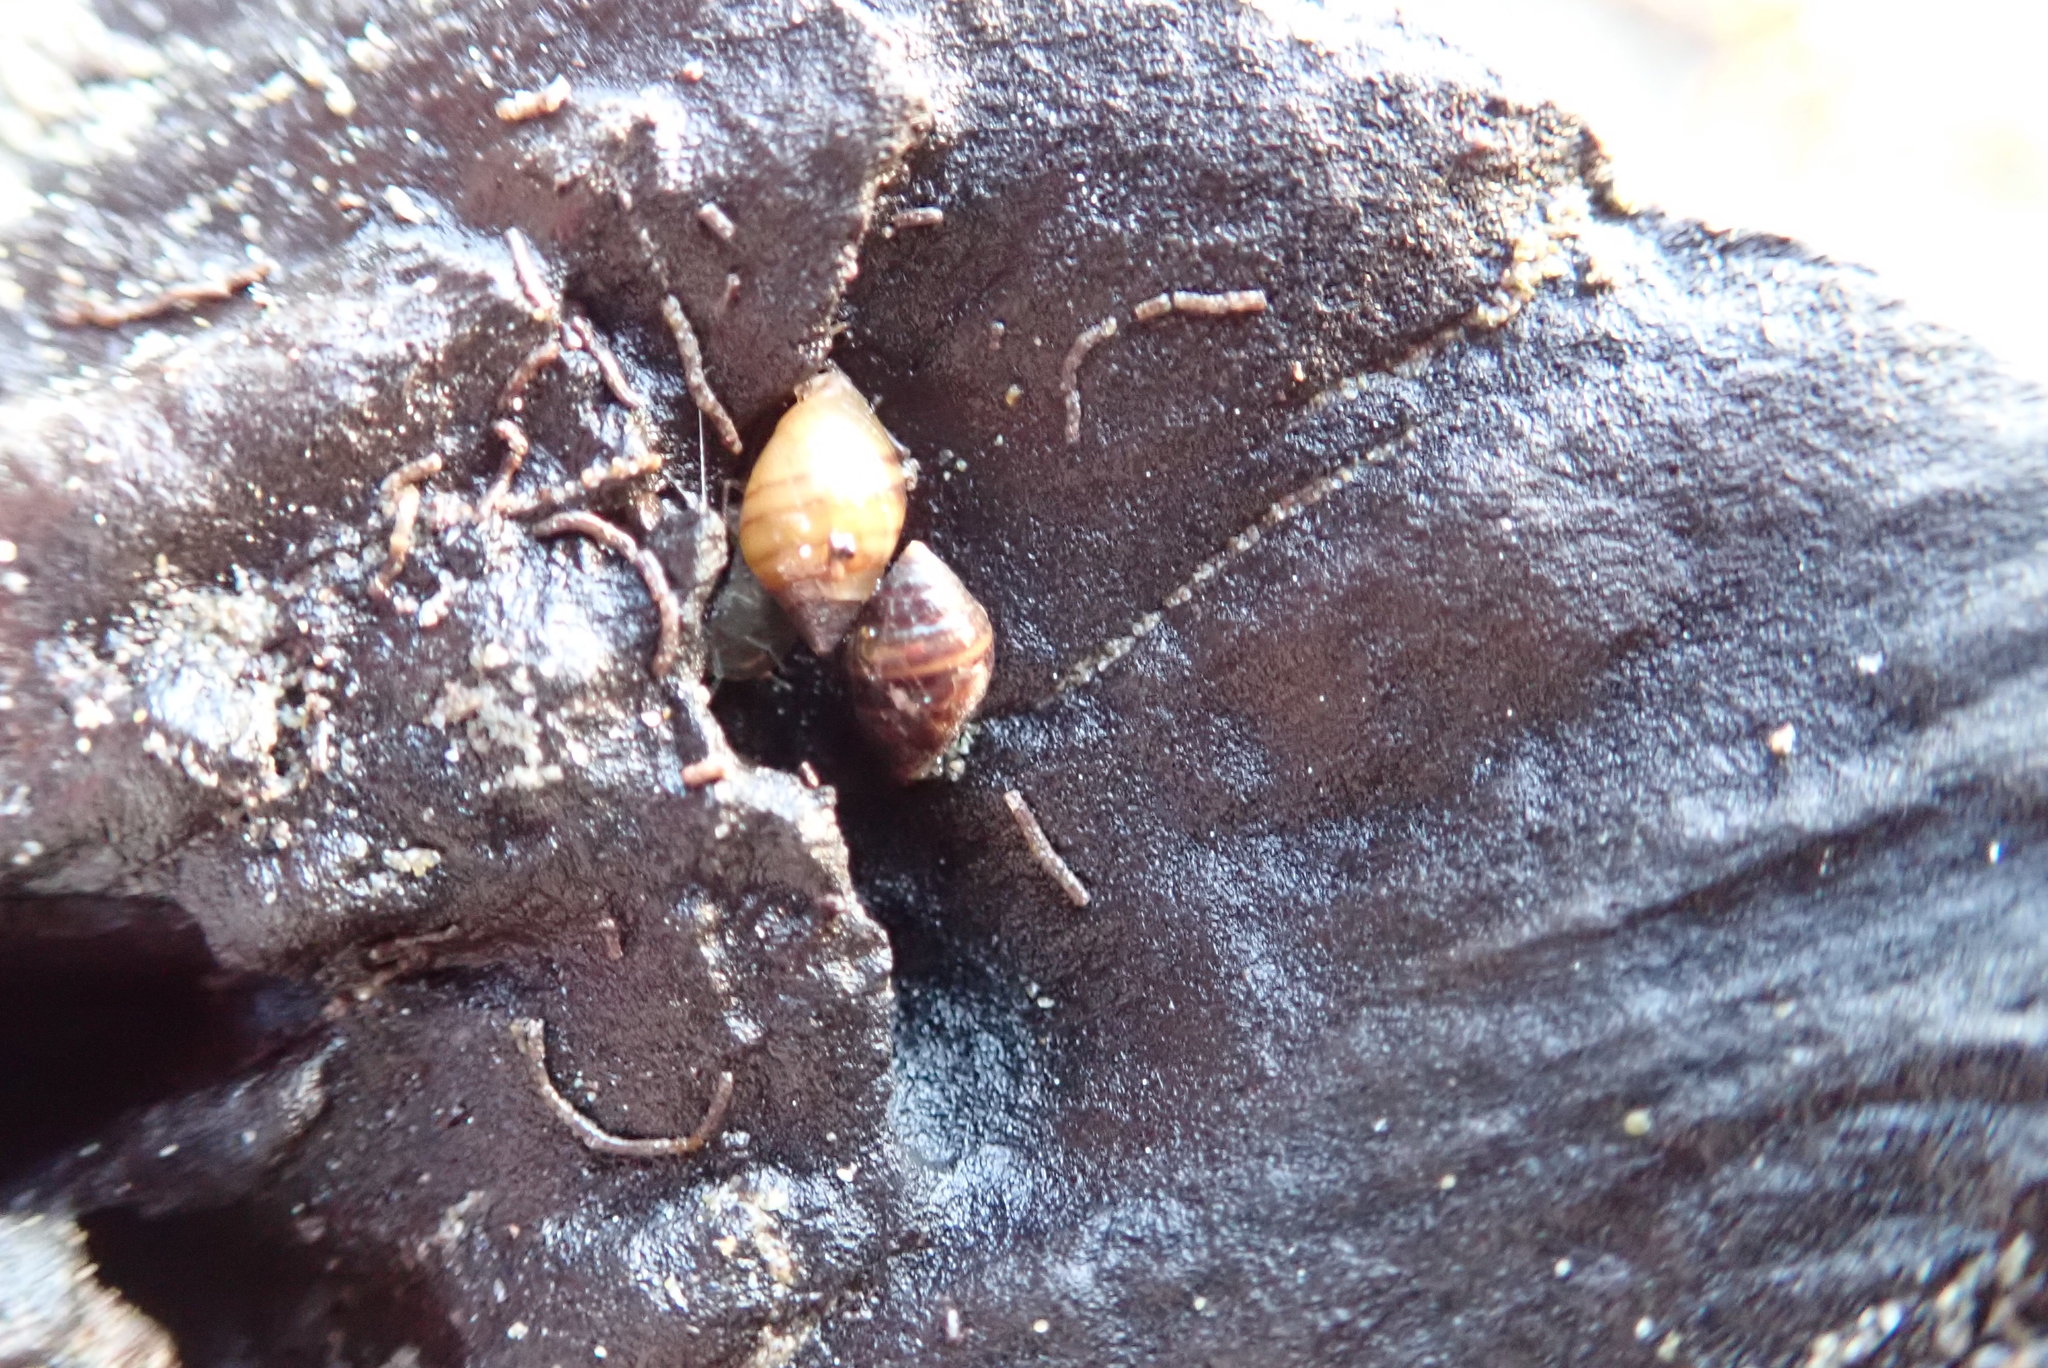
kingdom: Animalia
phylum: Mollusca
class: Gastropoda
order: Ellobiida
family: Ellobiidae
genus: Pleuroloba
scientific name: Pleuroloba costellaris
